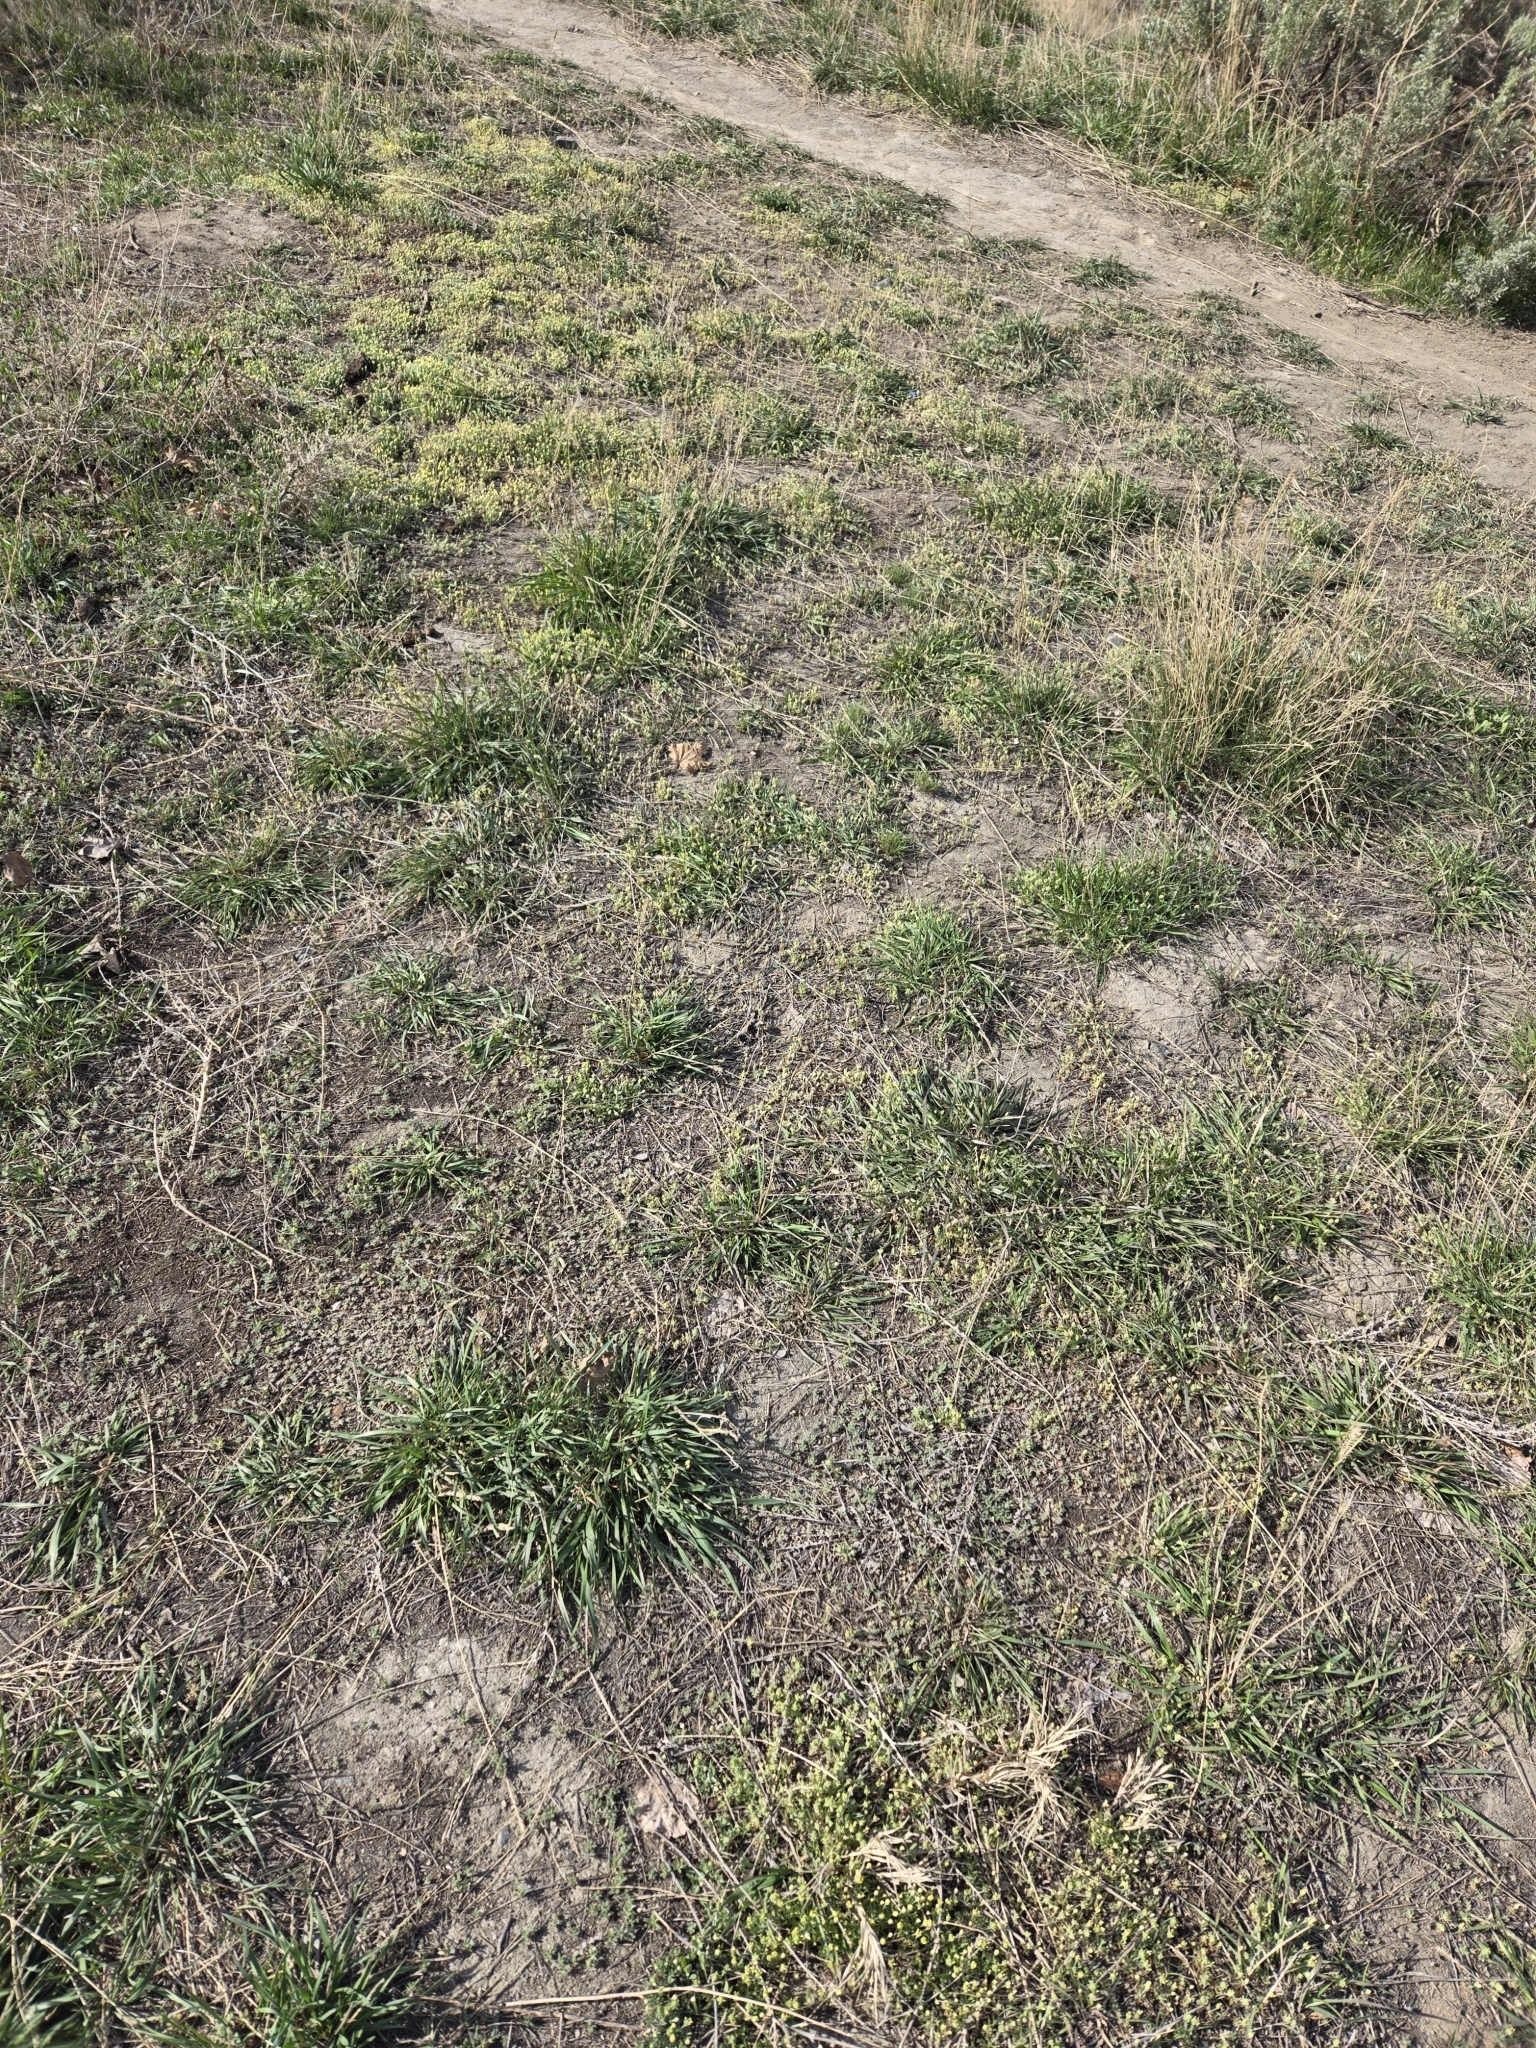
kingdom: Plantae
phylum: Tracheophyta
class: Magnoliopsida
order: Ranunculales
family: Ranunculaceae
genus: Ceratocephala
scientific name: Ceratocephala orthoceras
